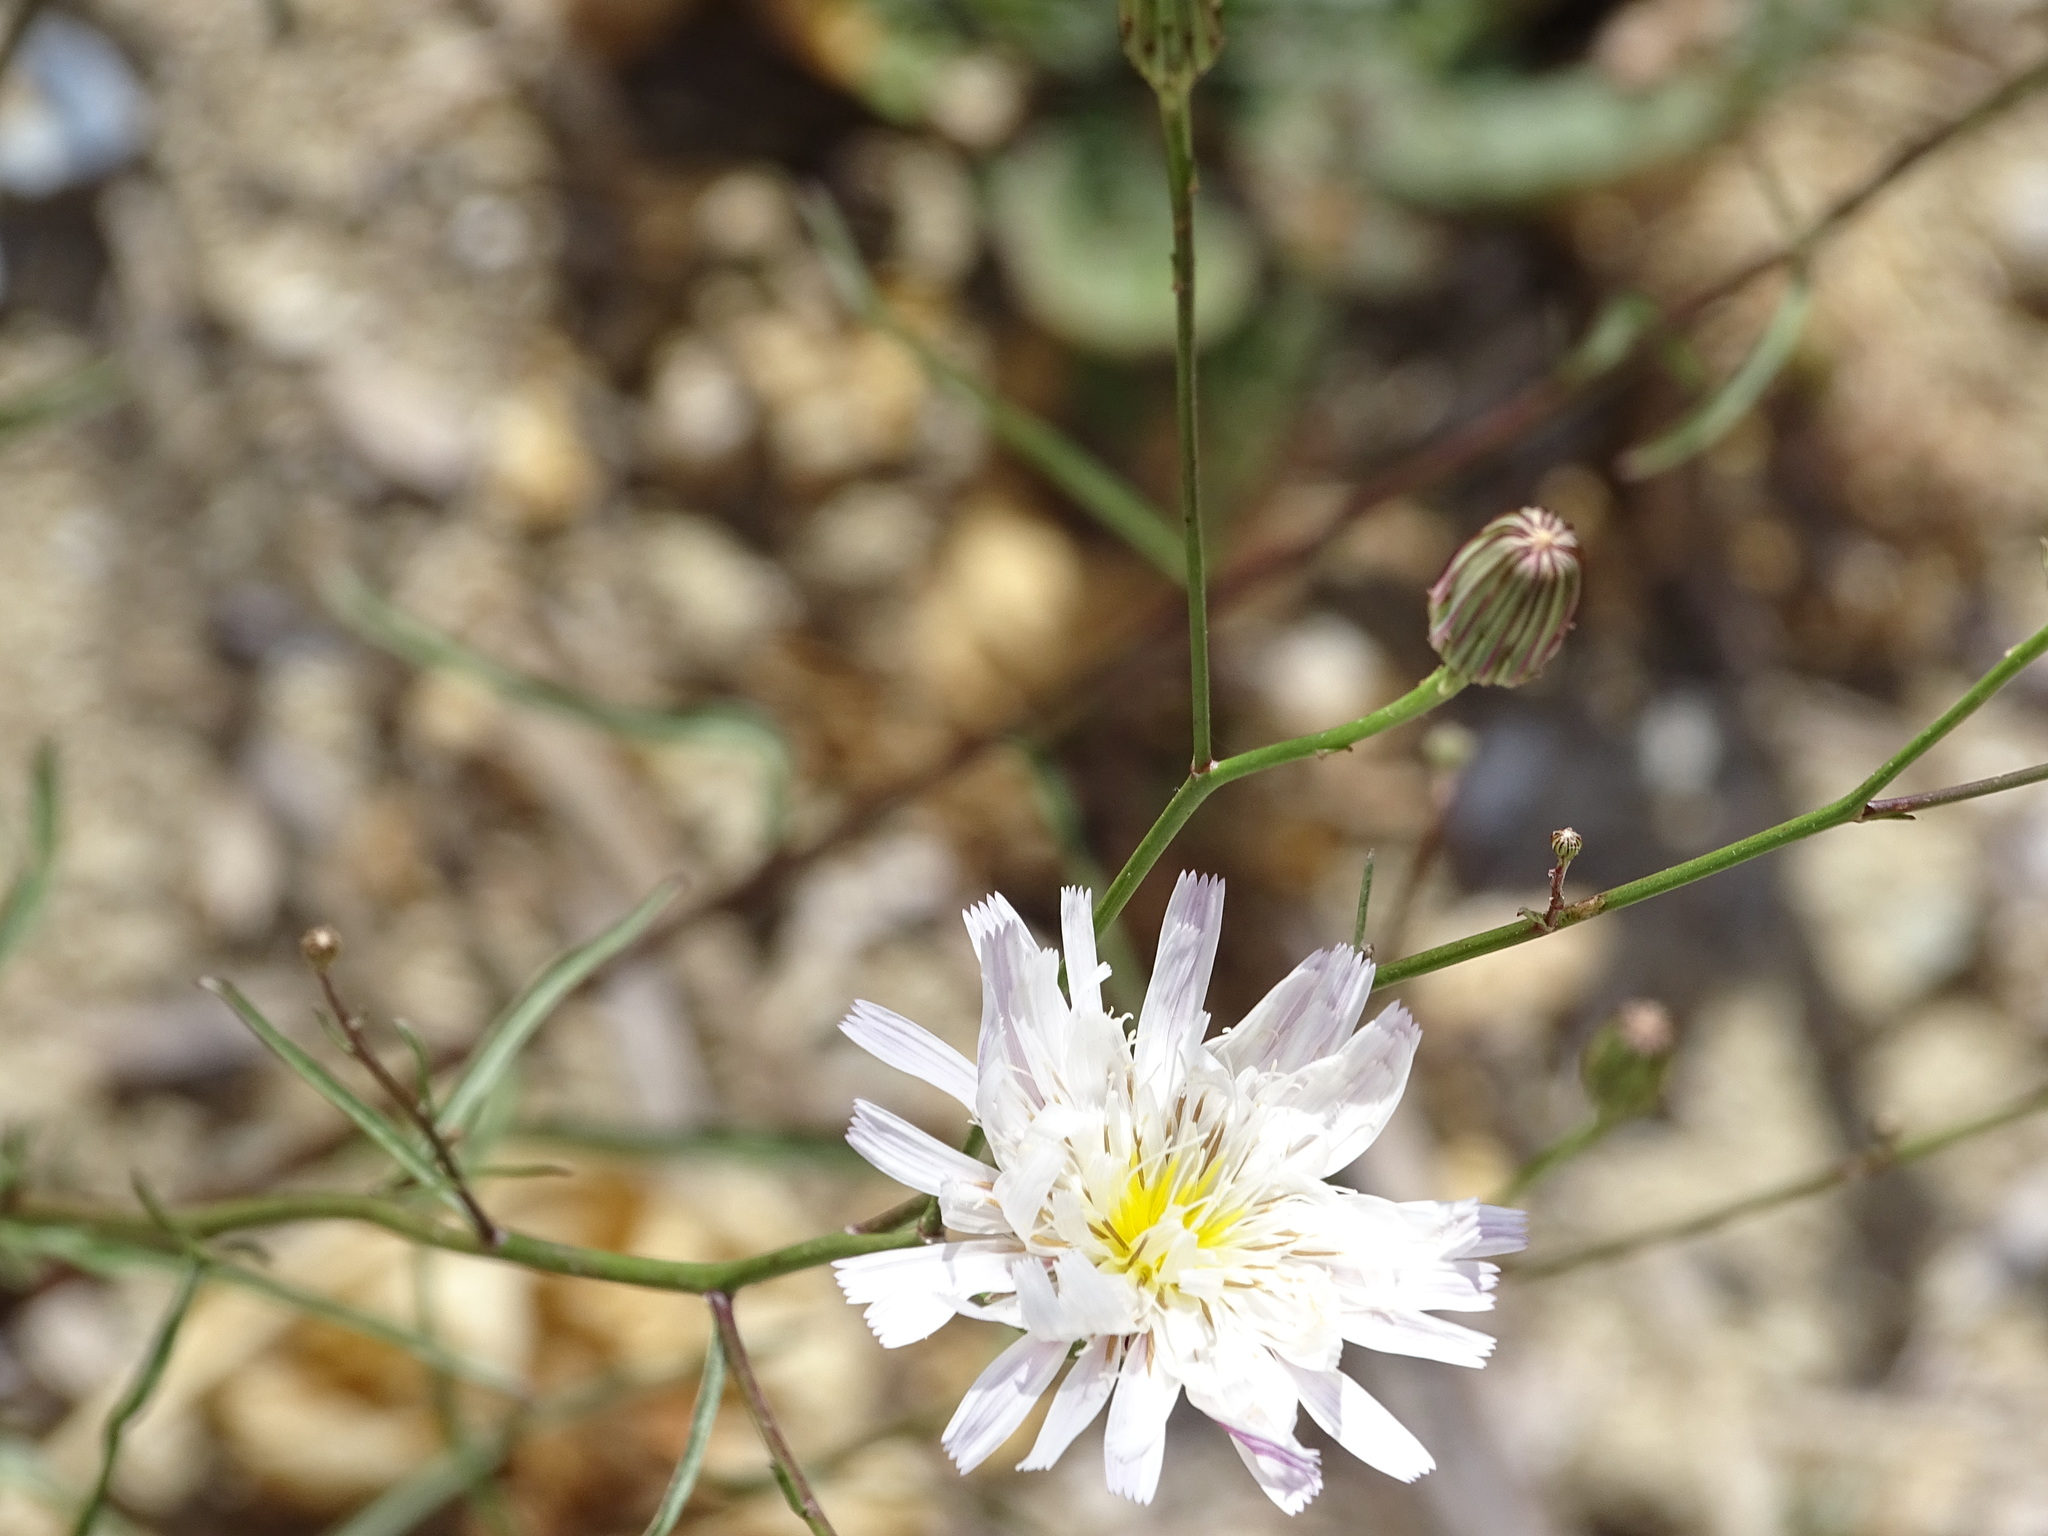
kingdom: Plantae
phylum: Tracheophyta
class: Magnoliopsida
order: Asterales
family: Asteraceae
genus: Malacothrix
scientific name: Malacothrix saxatilis
